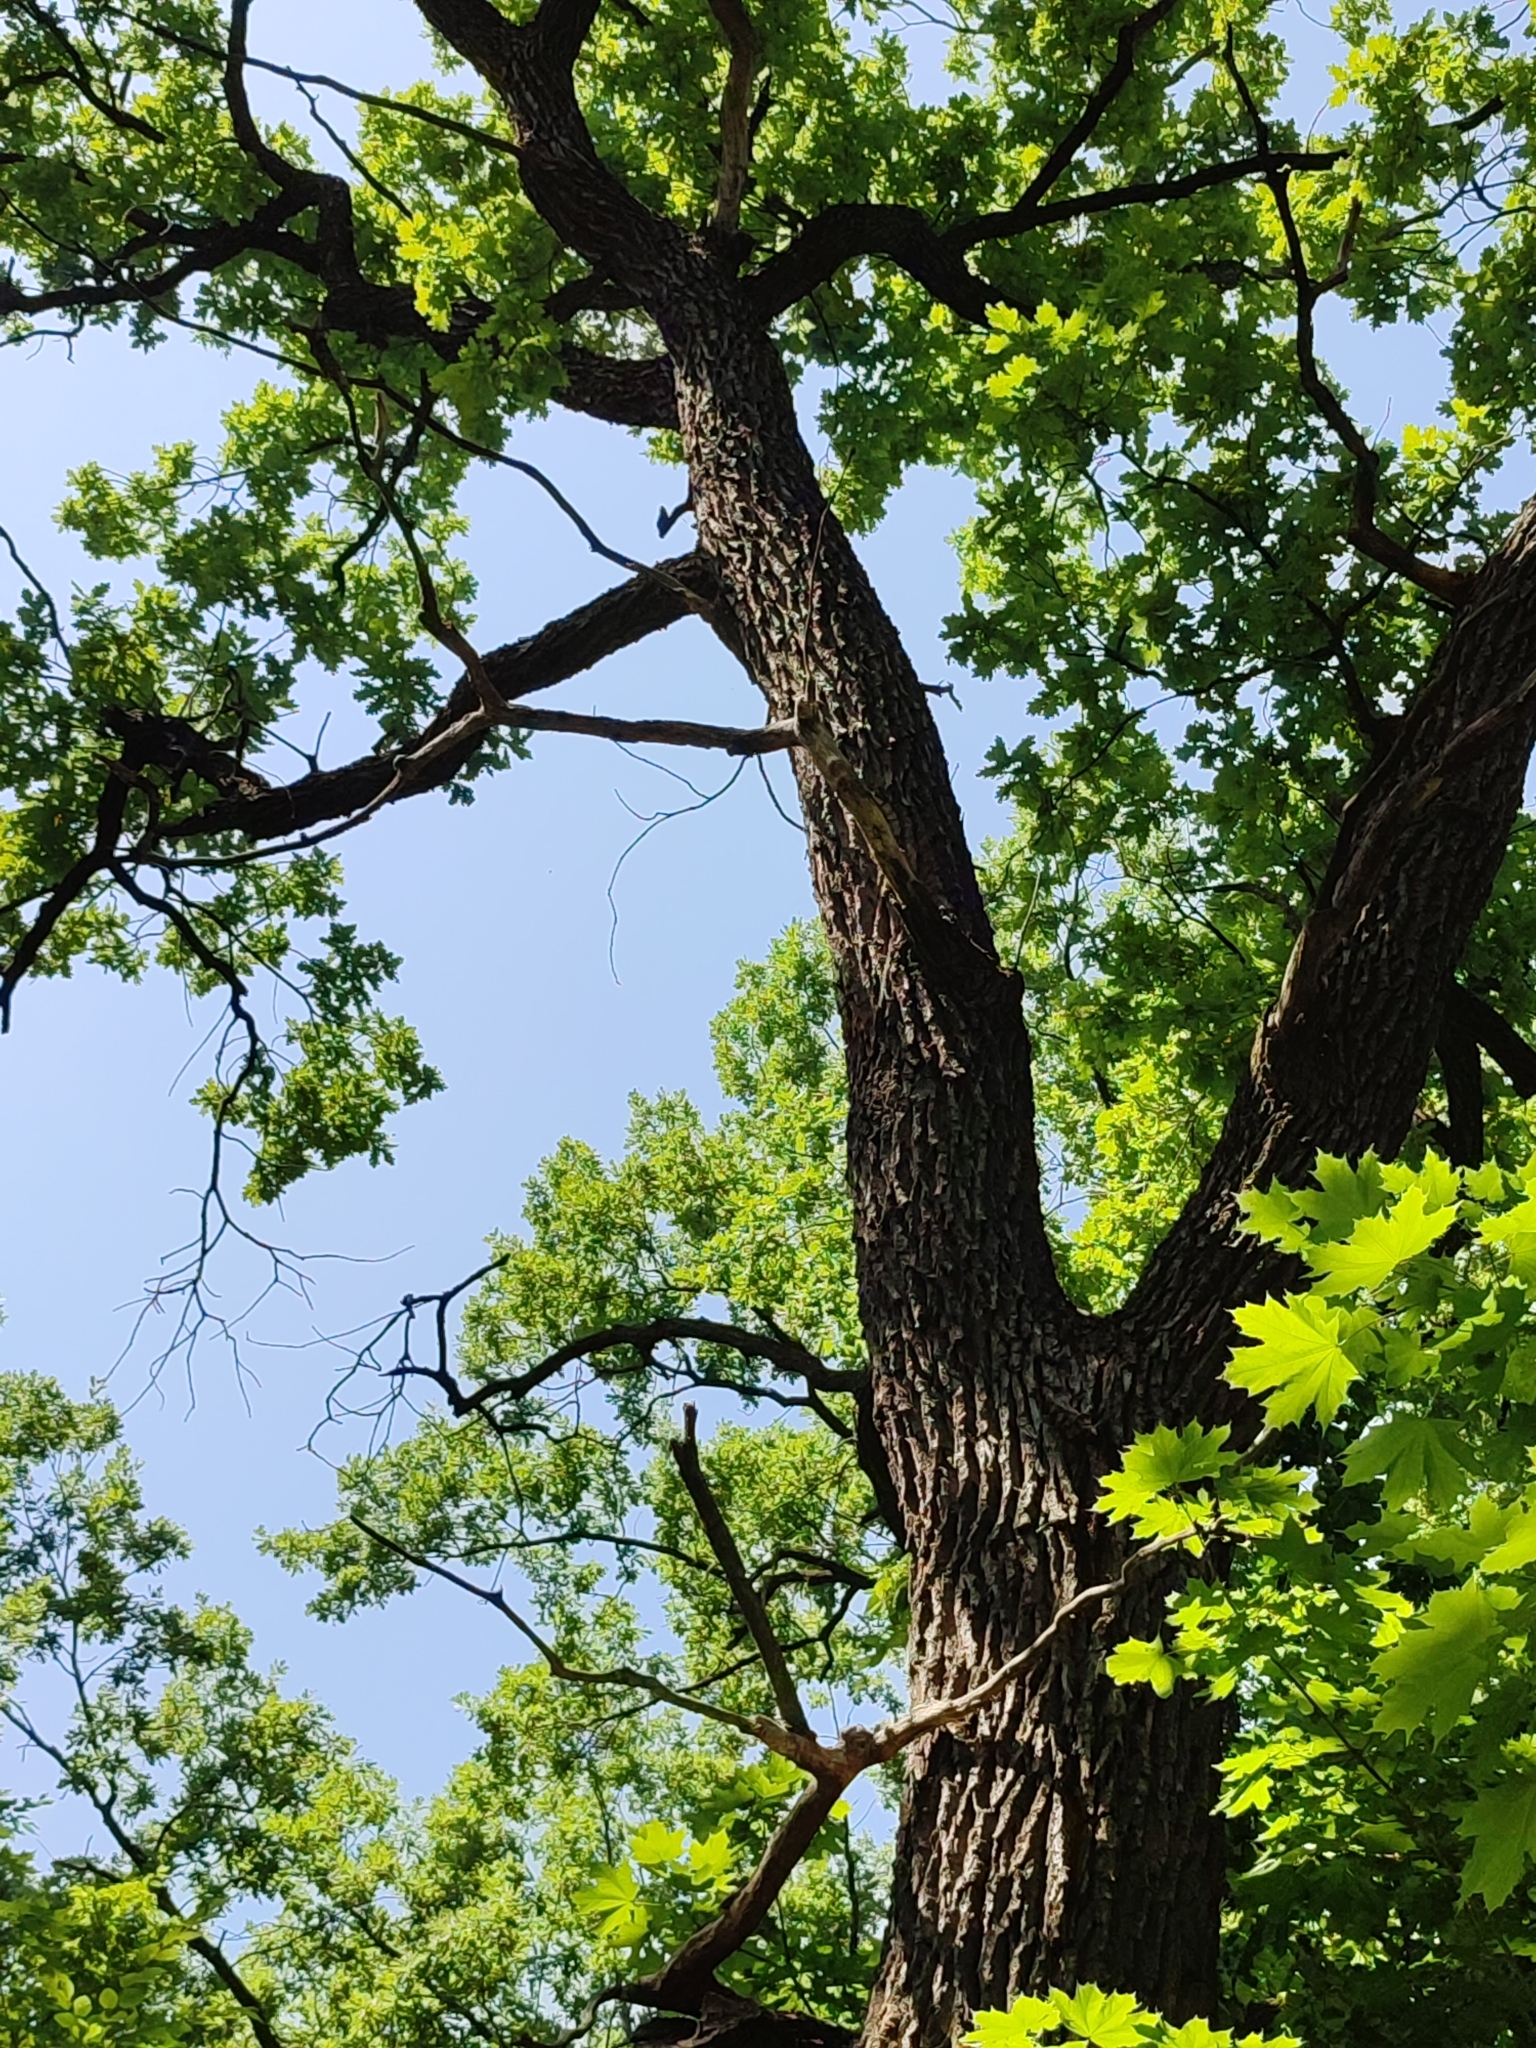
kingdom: Plantae
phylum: Tracheophyta
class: Magnoliopsida
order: Fagales
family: Fagaceae
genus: Quercus
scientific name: Quercus robur
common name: Pedunculate oak
